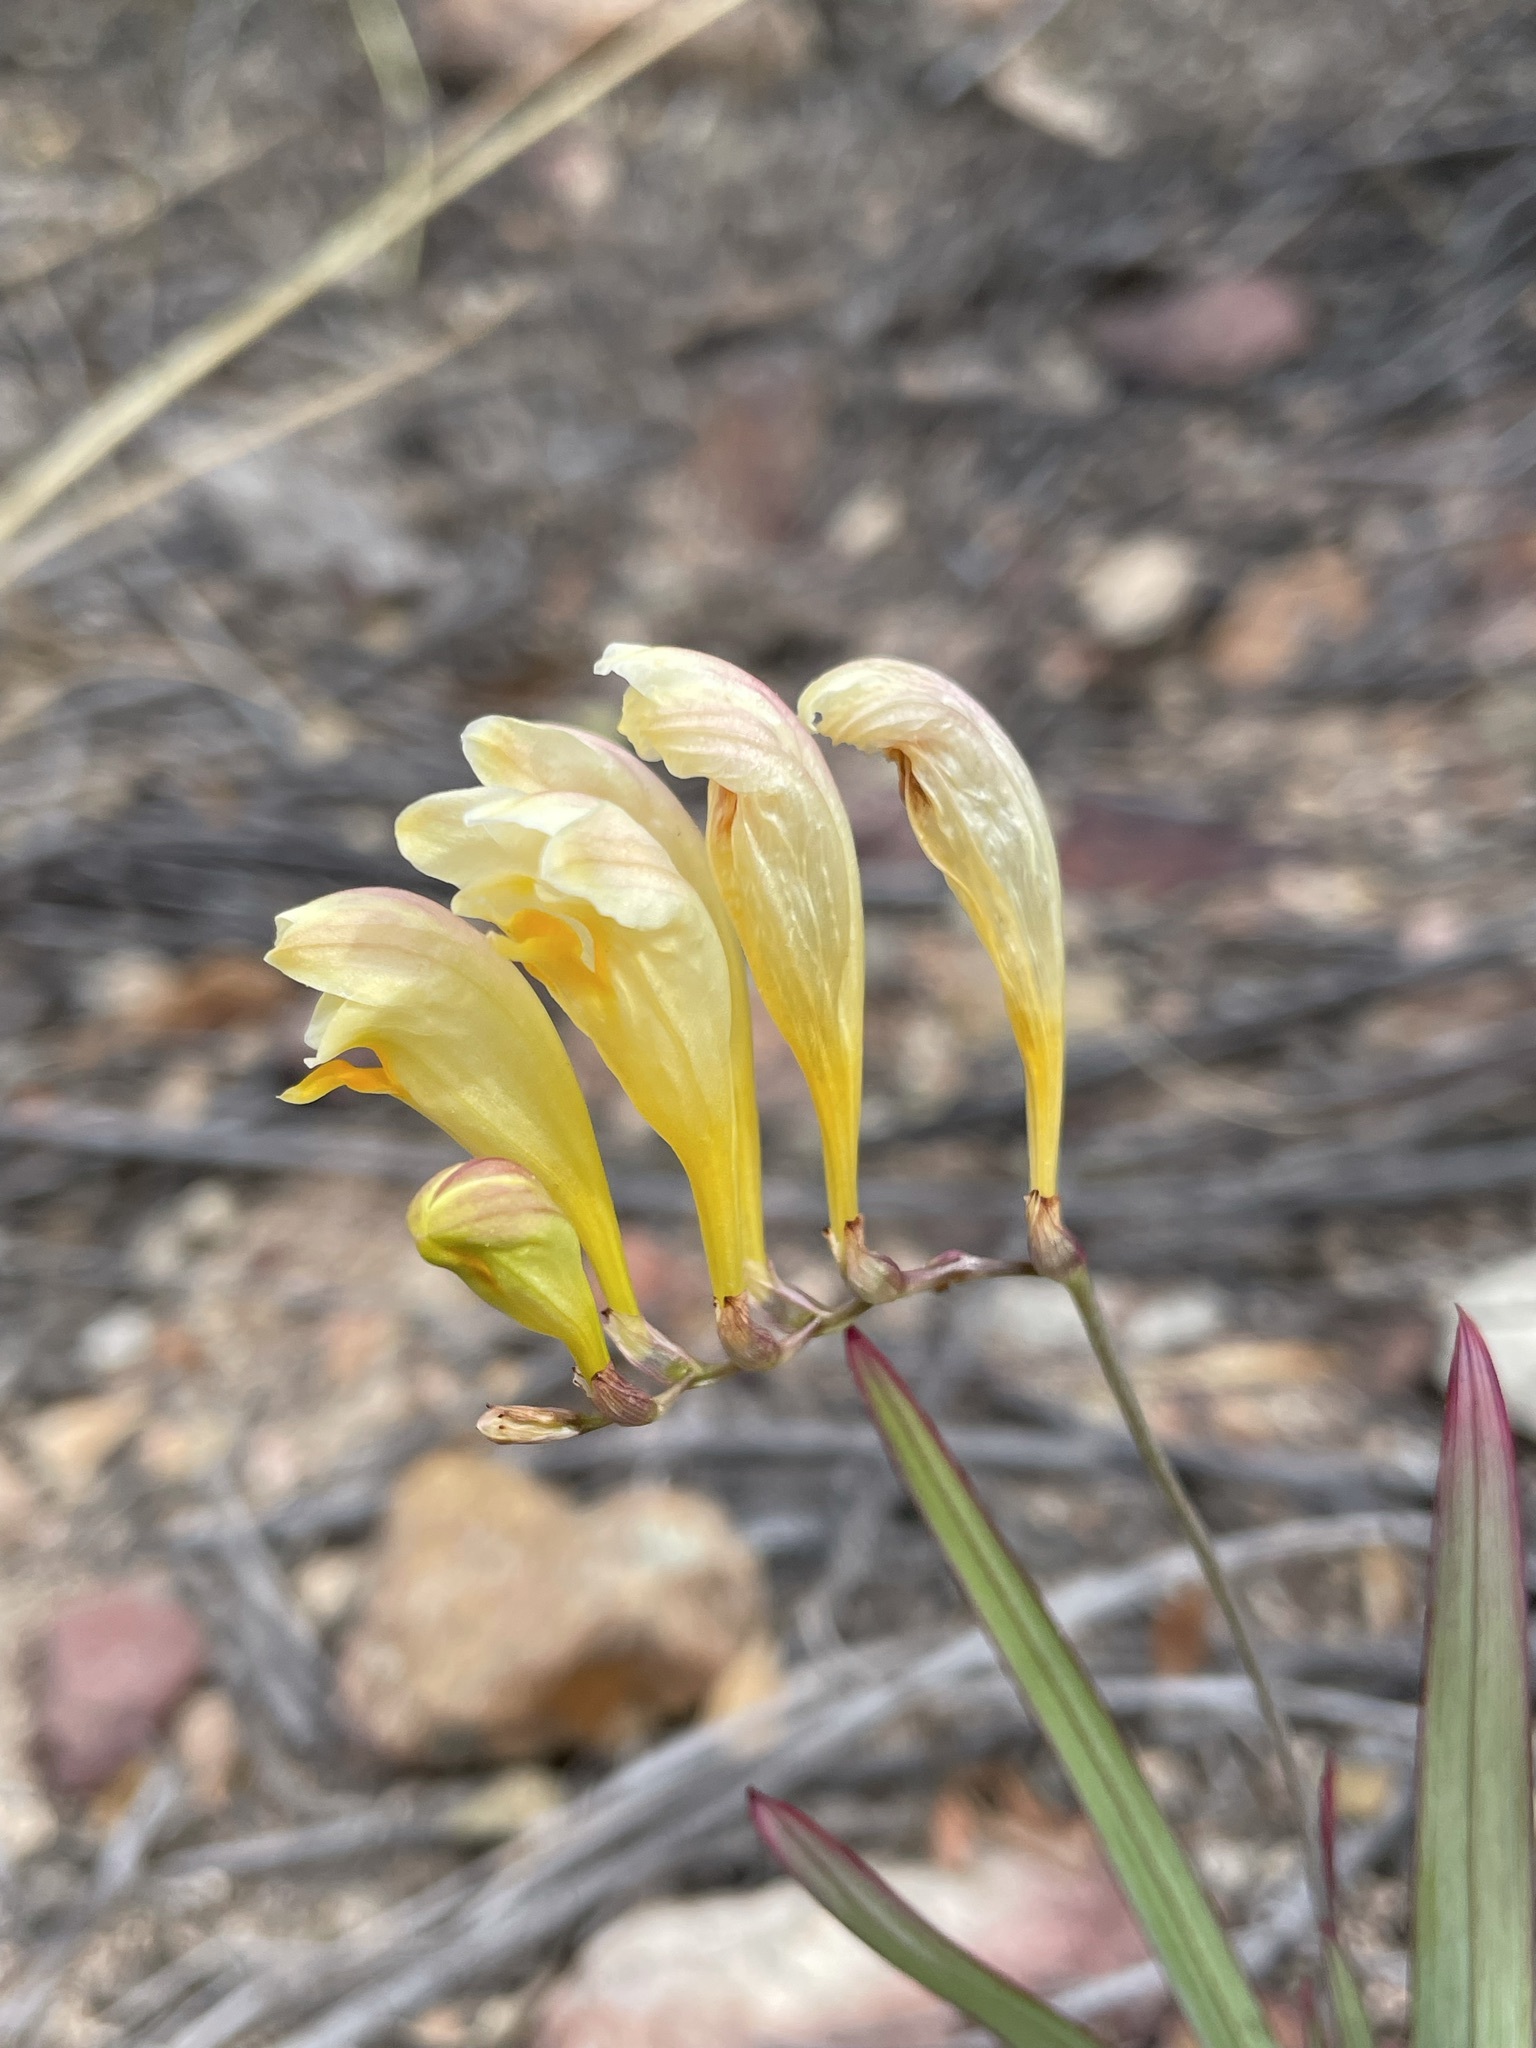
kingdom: Plantae
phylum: Tracheophyta
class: Liliopsida
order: Asparagales
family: Iridaceae
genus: Freesia
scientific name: Freesia corymbosa
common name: Common freesia
